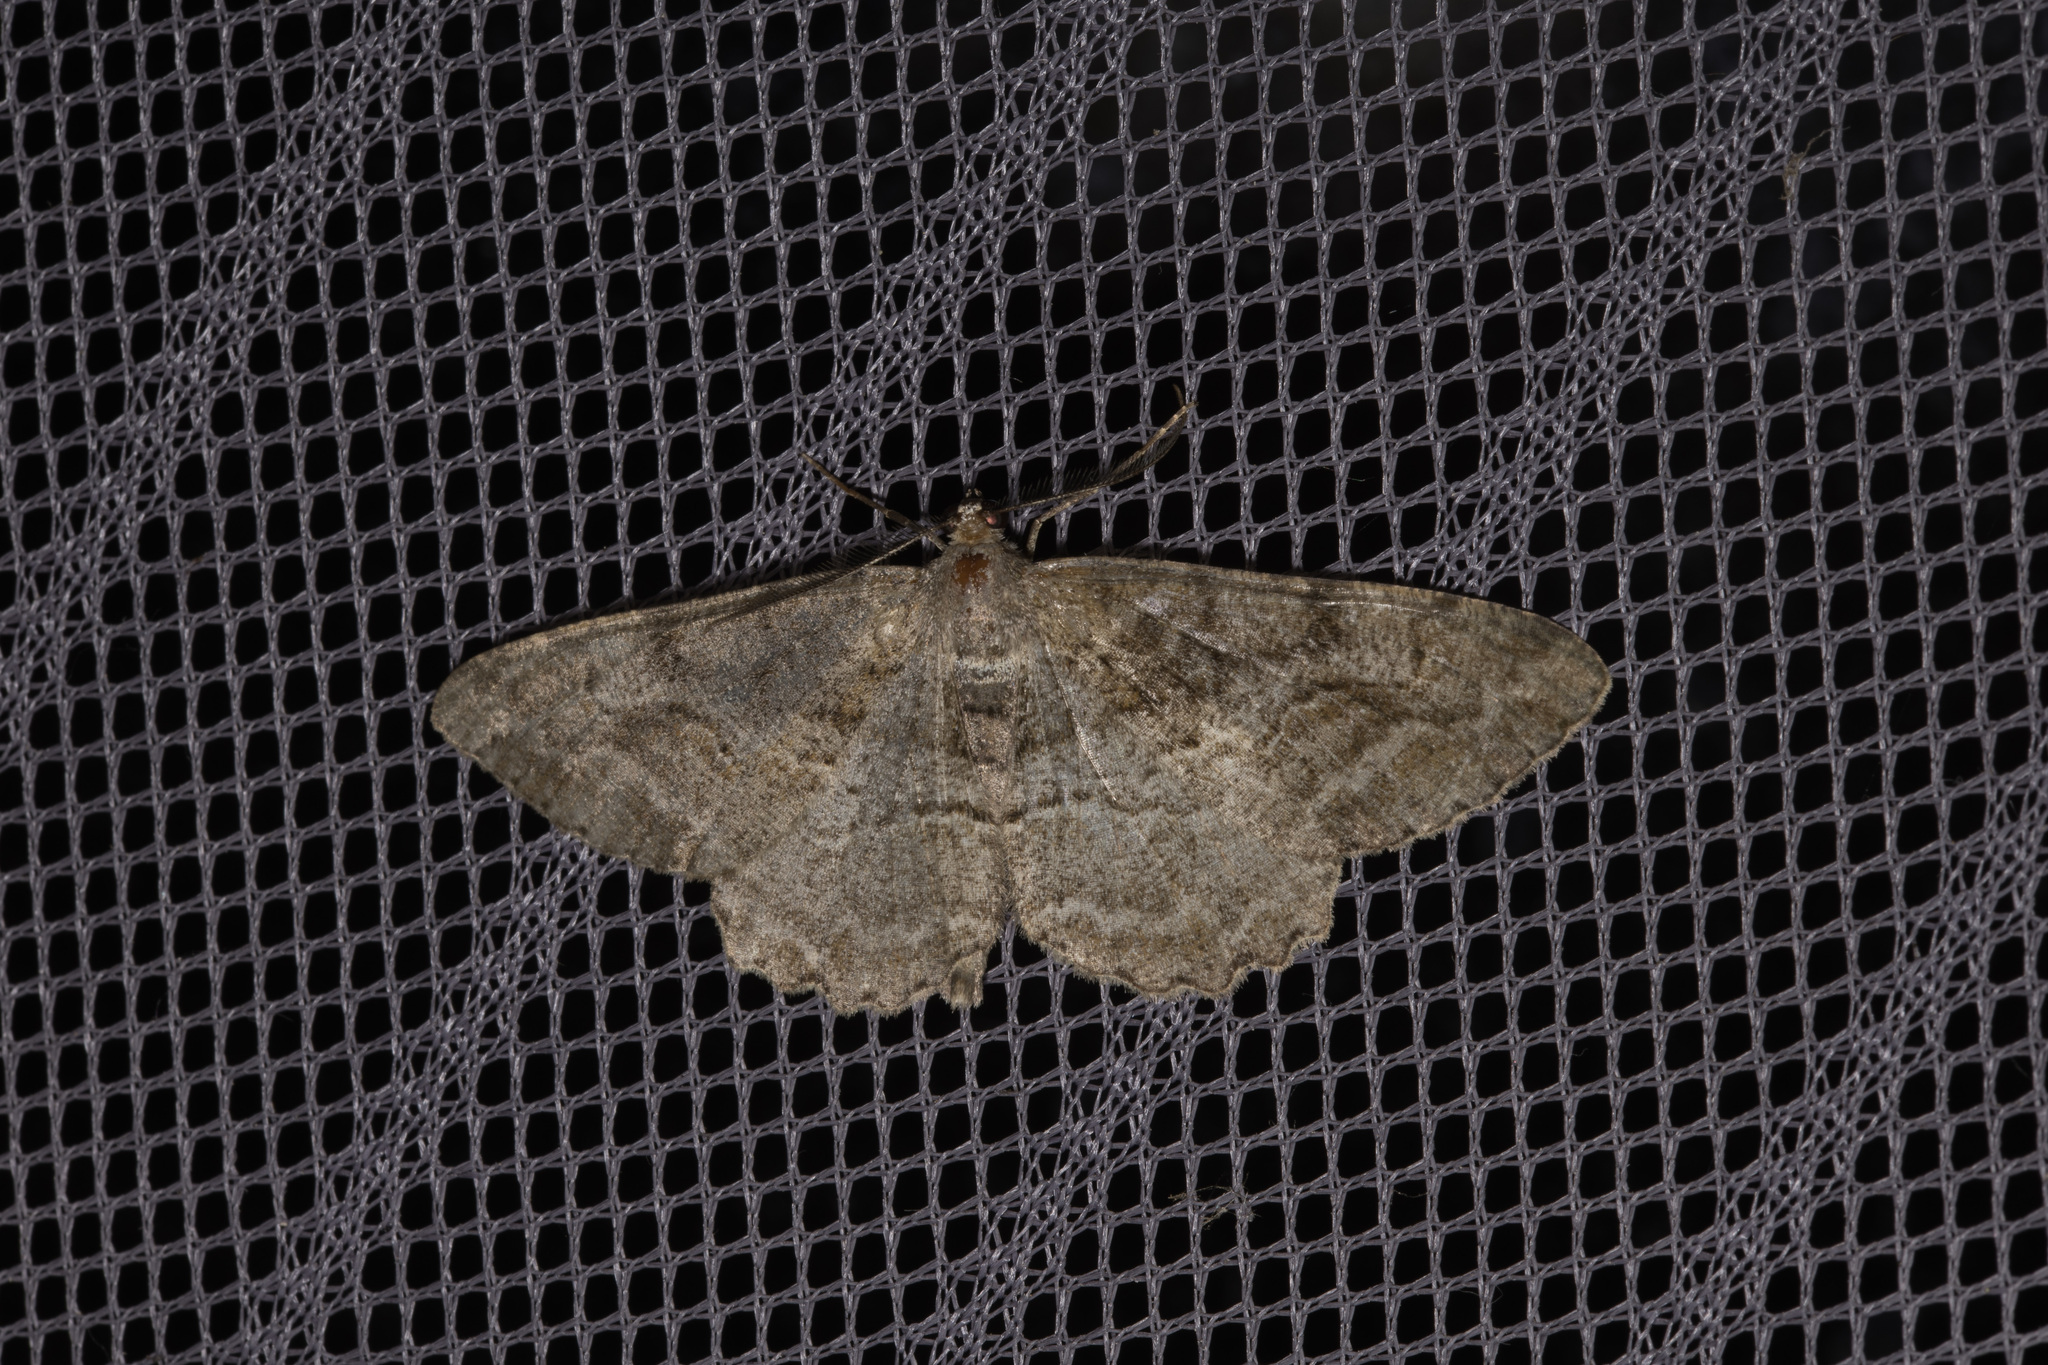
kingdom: Animalia
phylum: Arthropoda
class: Insecta
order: Lepidoptera
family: Geometridae
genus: Alcis
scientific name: Alcis repandata
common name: Mottled beauty
